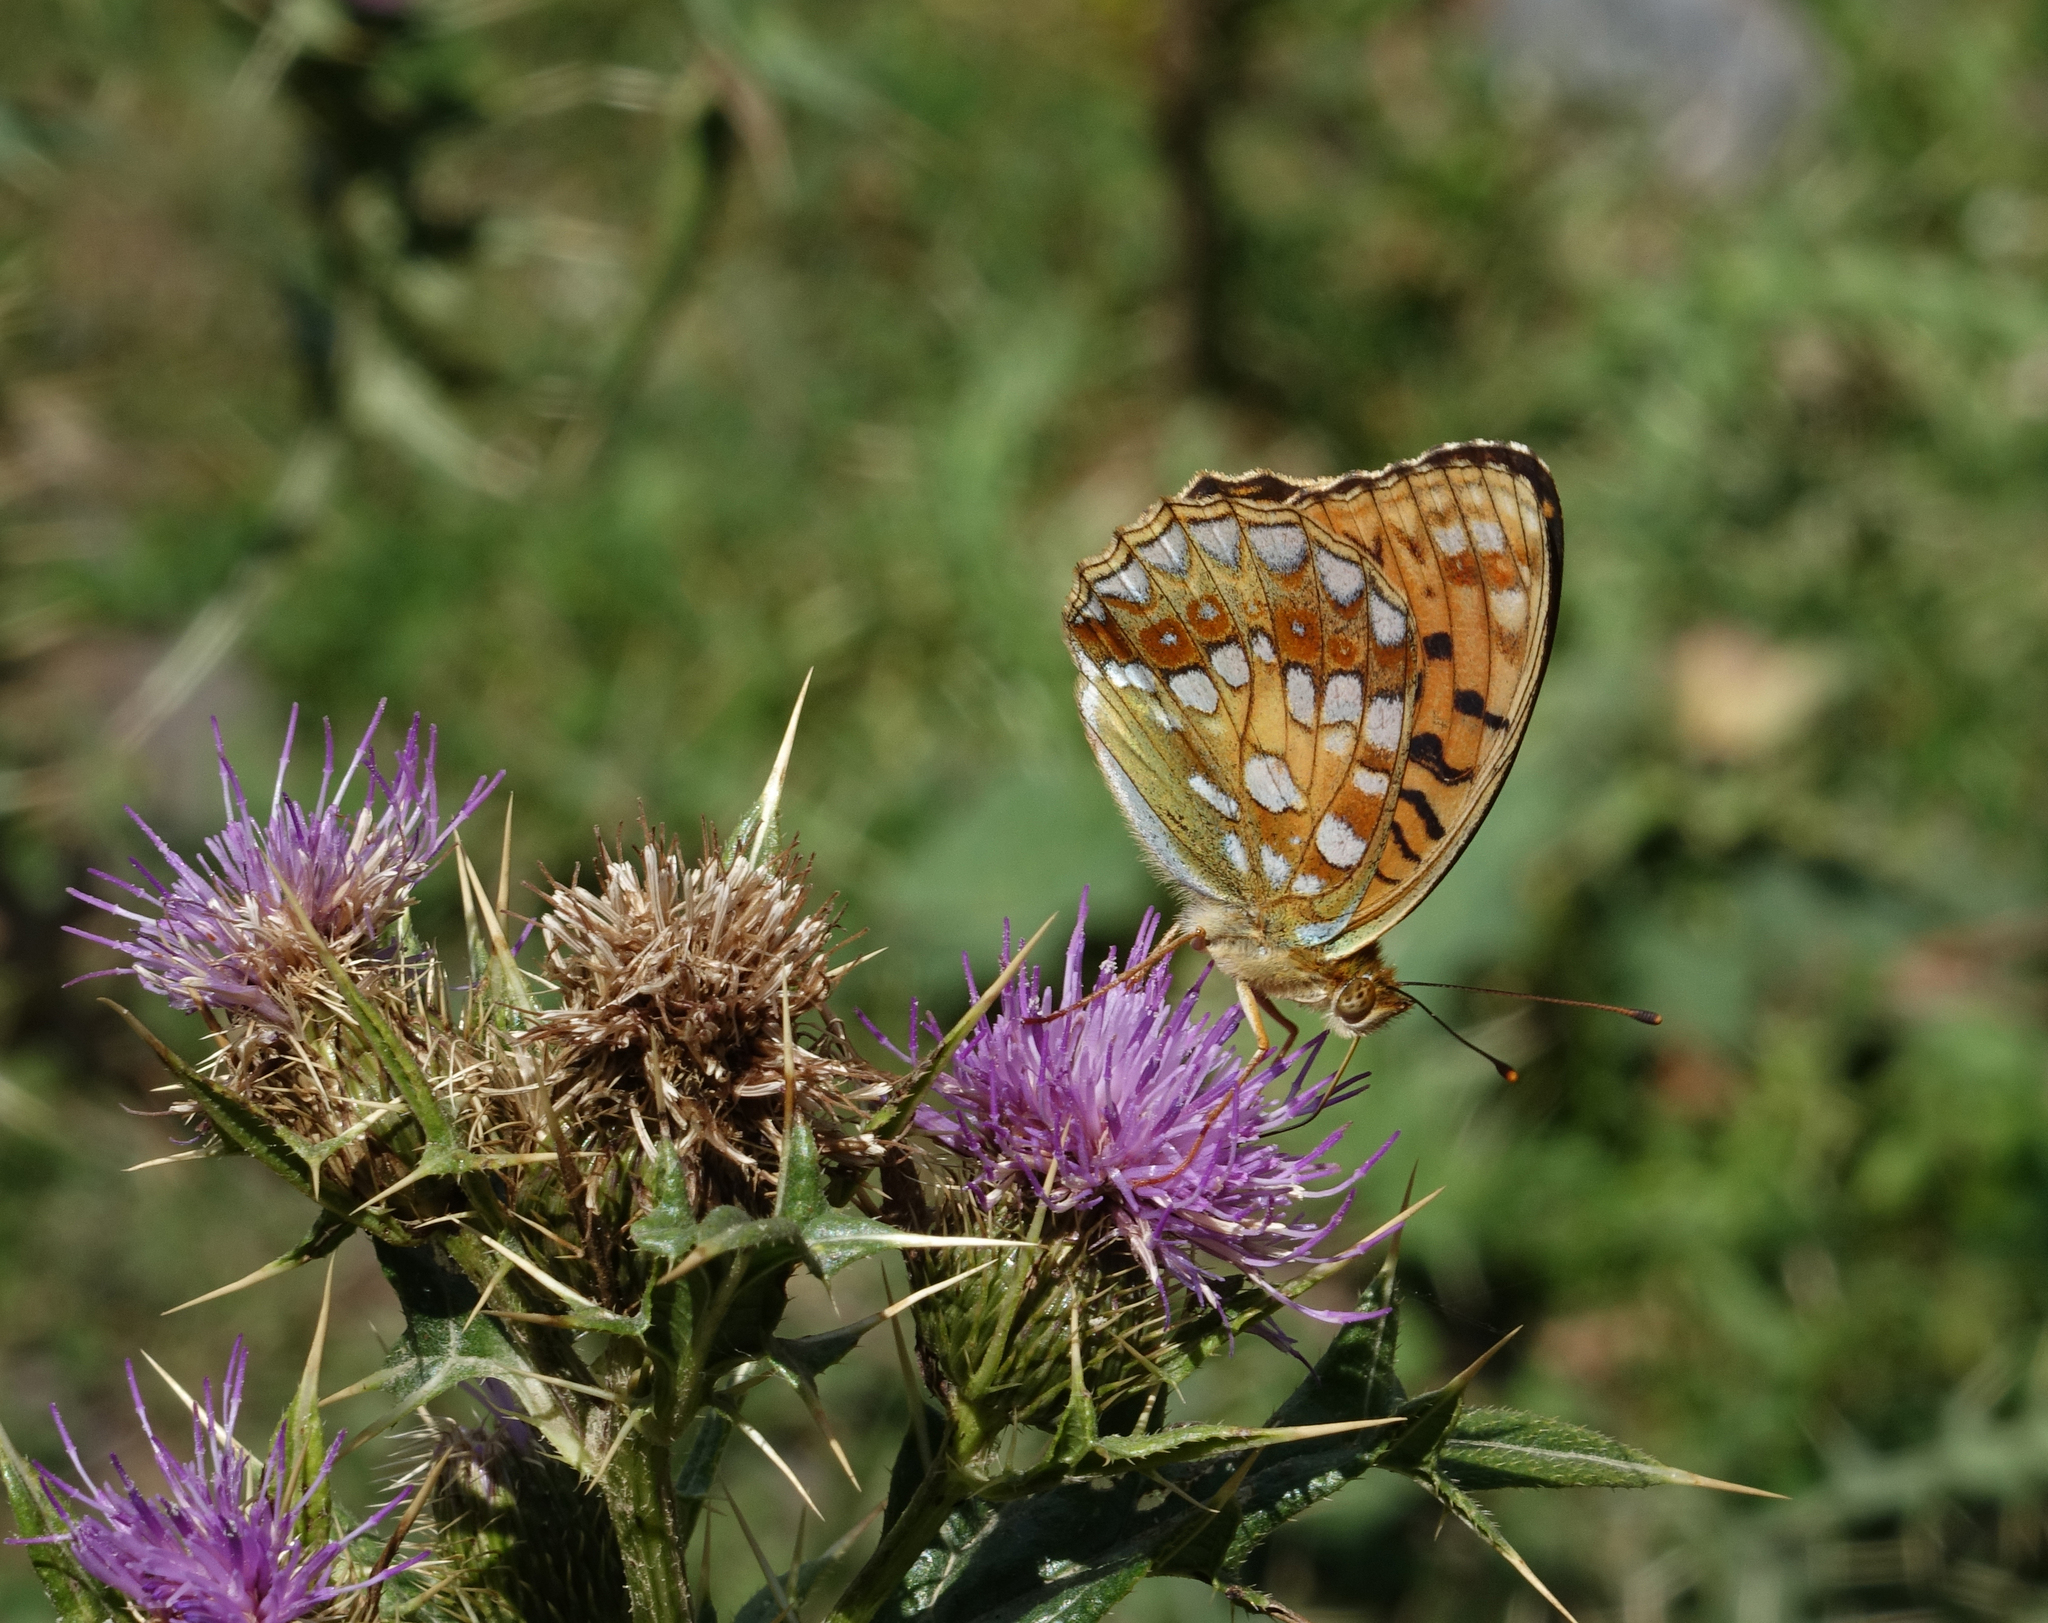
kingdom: Animalia
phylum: Arthropoda
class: Insecta
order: Lepidoptera
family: Nymphalidae
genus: Fabriciana
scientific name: Fabriciana adippe
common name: High brown fritillary
